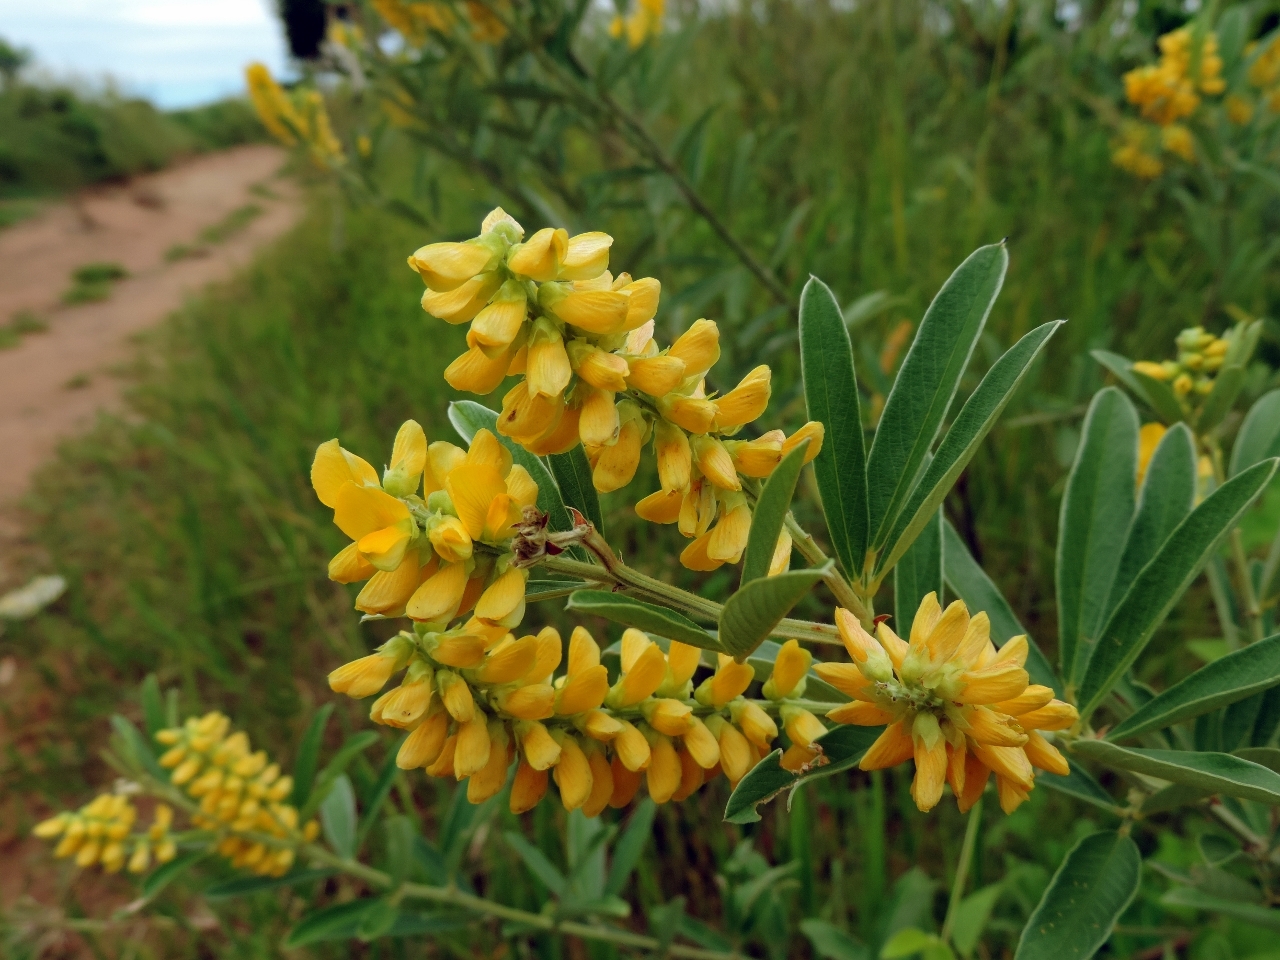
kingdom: Plantae
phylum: Tracheophyta
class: Magnoliopsida
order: Fabales
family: Fabaceae
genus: Eriosema
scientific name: Eriosema psoraleoides
